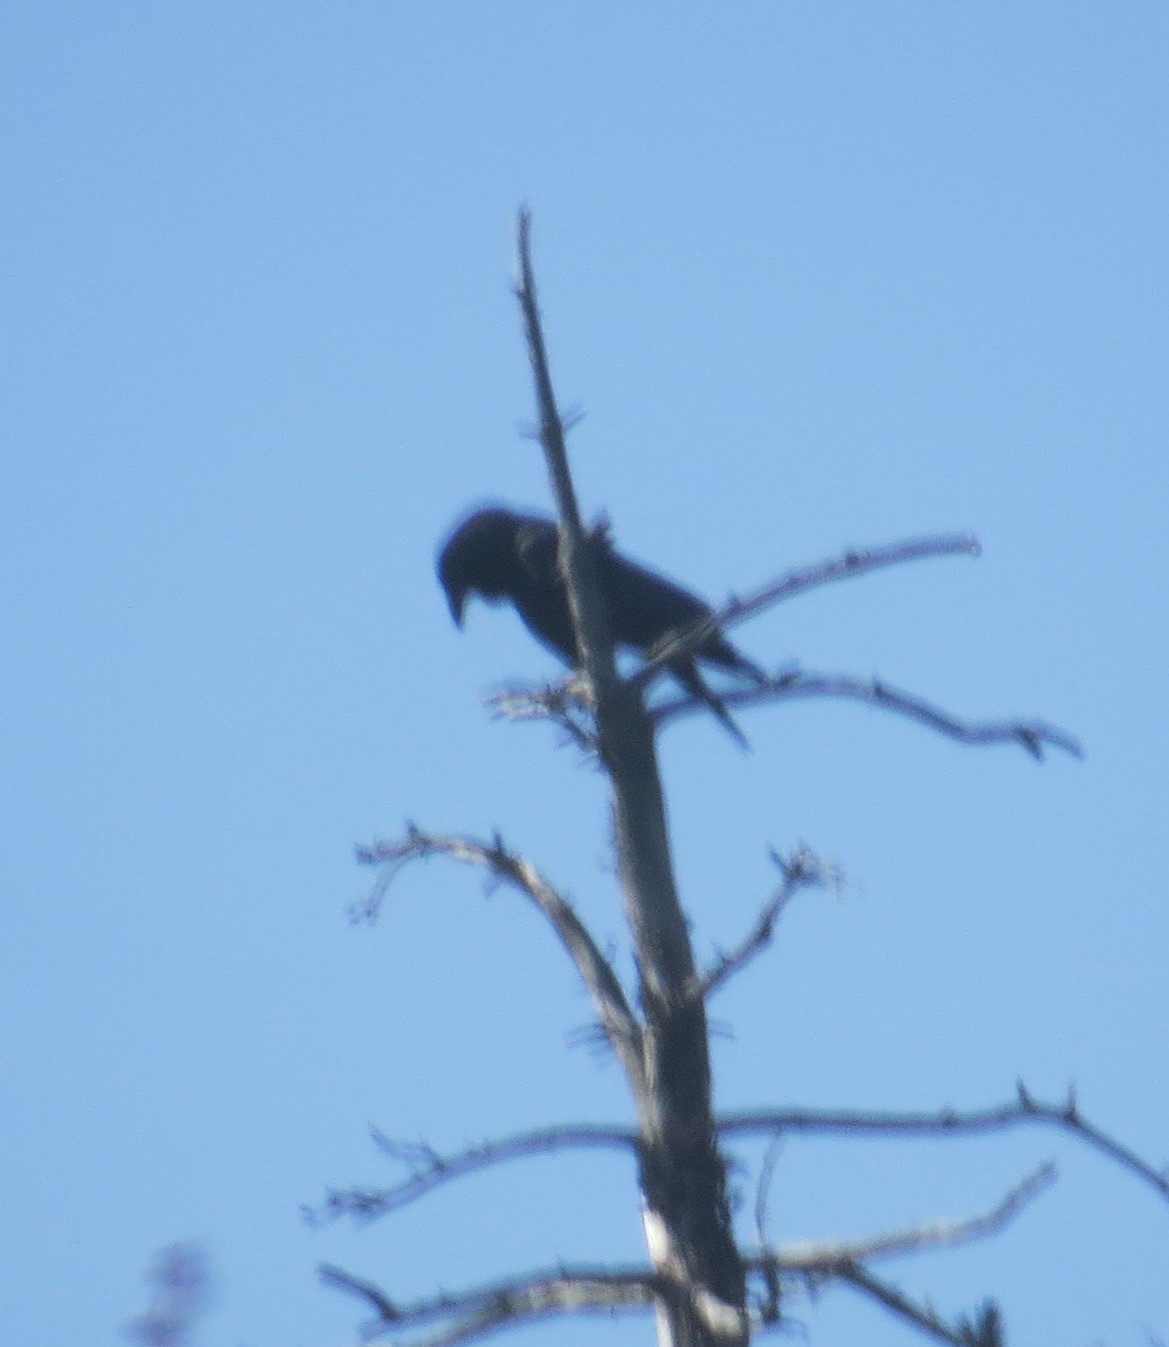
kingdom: Animalia
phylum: Chordata
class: Aves
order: Passeriformes
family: Corvidae
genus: Corvus
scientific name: Corvus brachyrhynchos
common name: American crow
